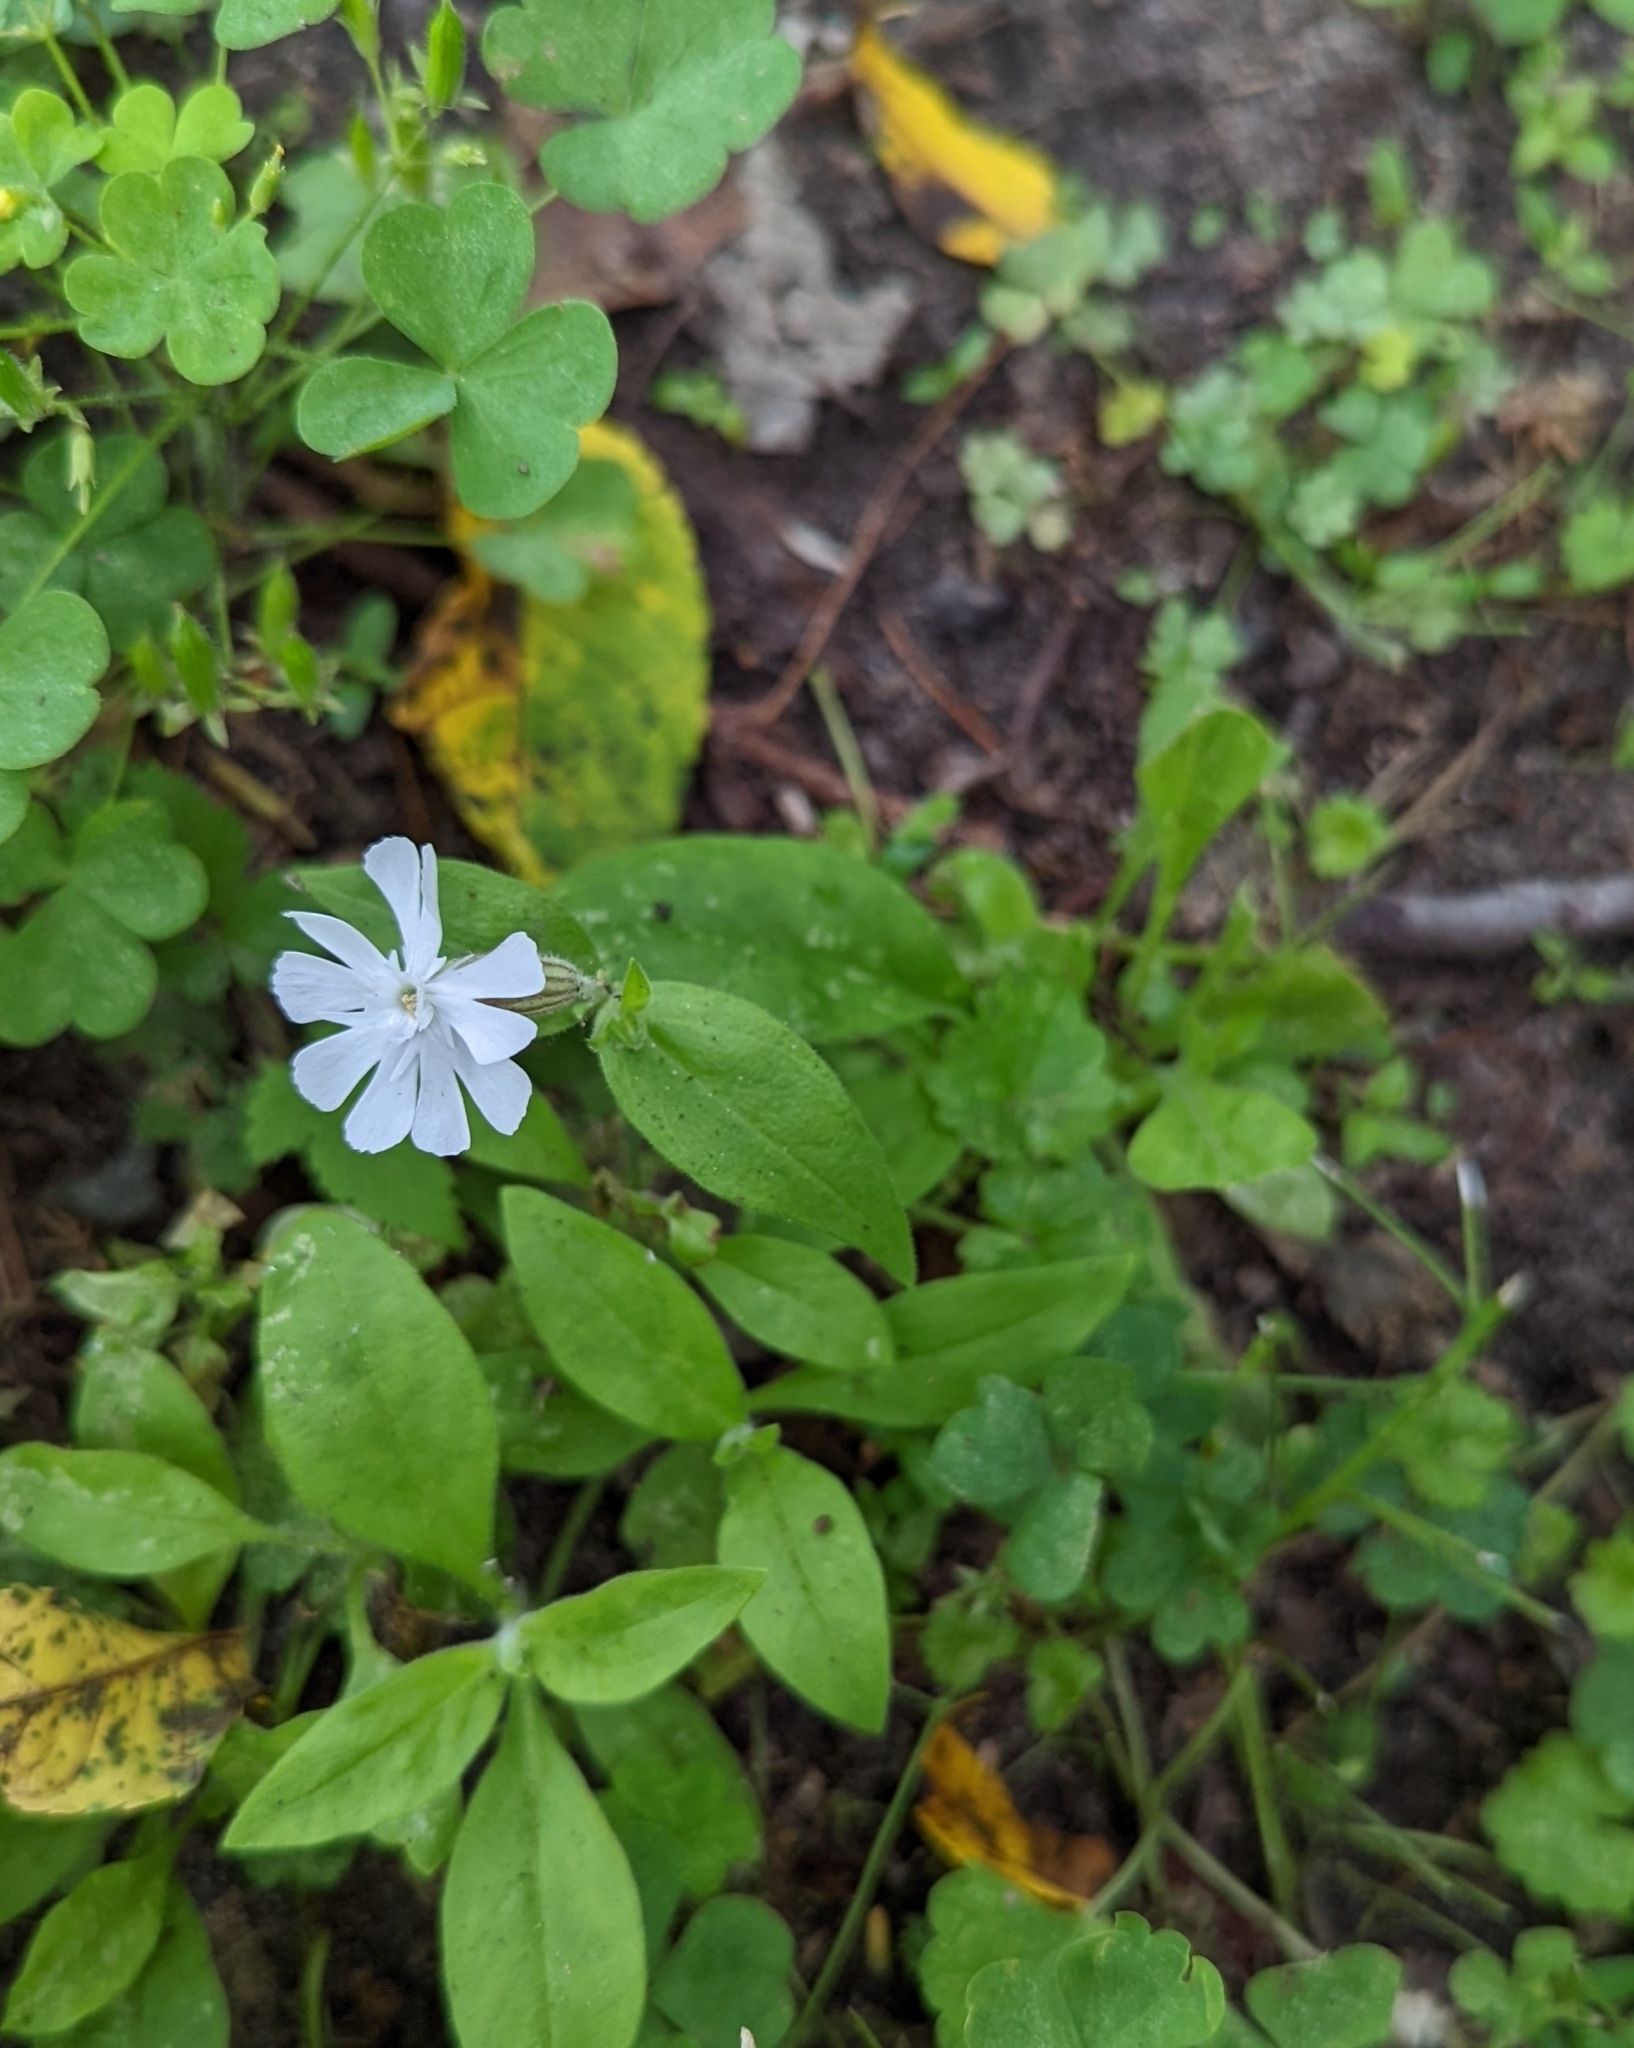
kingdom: Plantae
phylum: Tracheophyta
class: Magnoliopsida
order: Caryophyllales
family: Caryophyllaceae
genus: Silene
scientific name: Silene latifolia
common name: White campion
